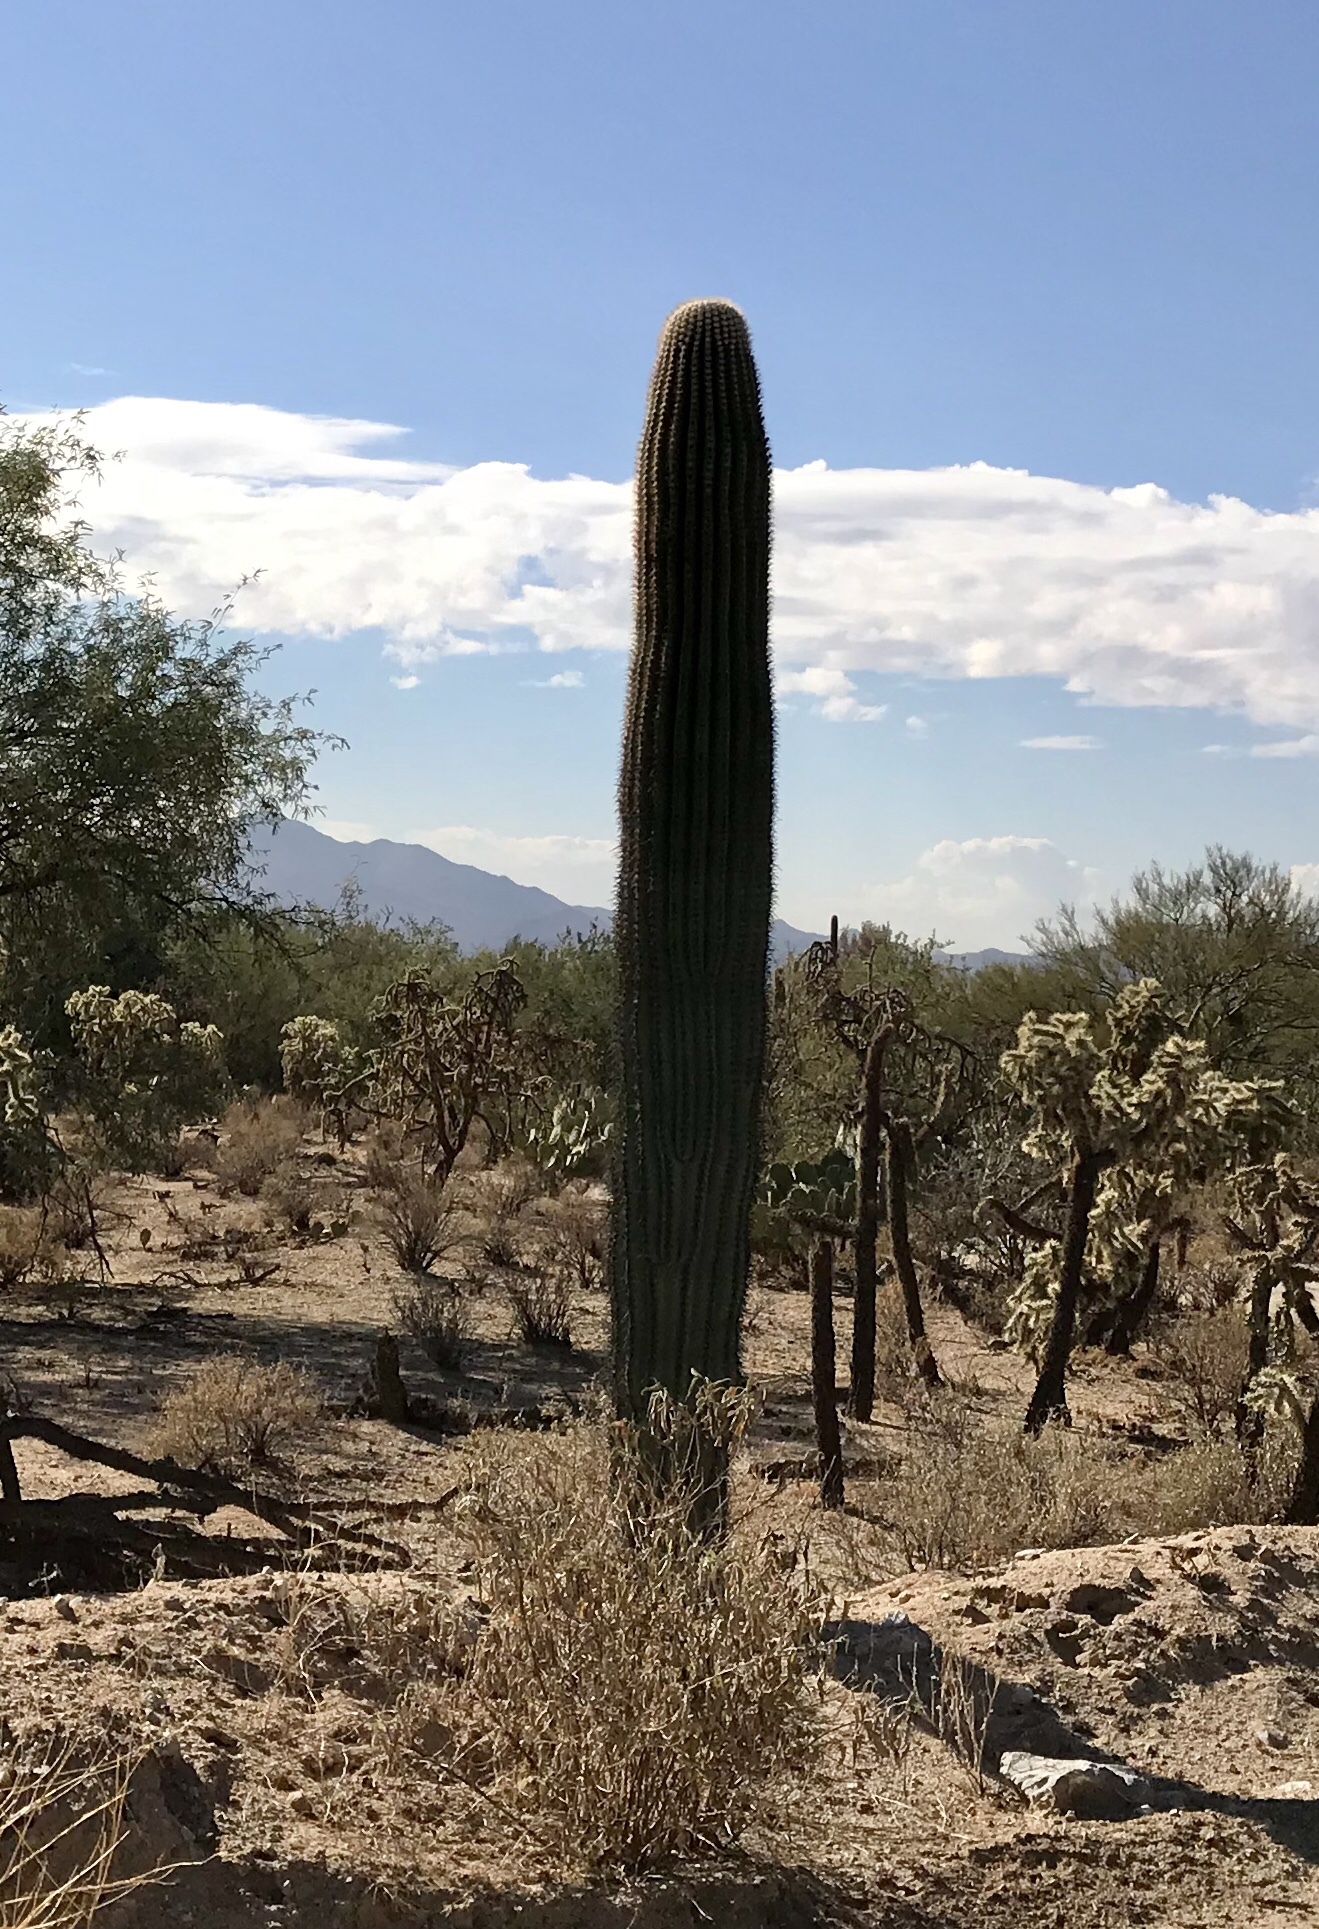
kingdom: Plantae
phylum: Tracheophyta
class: Magnoliopsida
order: Caryophyllales
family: Cactaceae
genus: Carnegiea
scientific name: Carnegiea gigantea
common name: Saguaro
